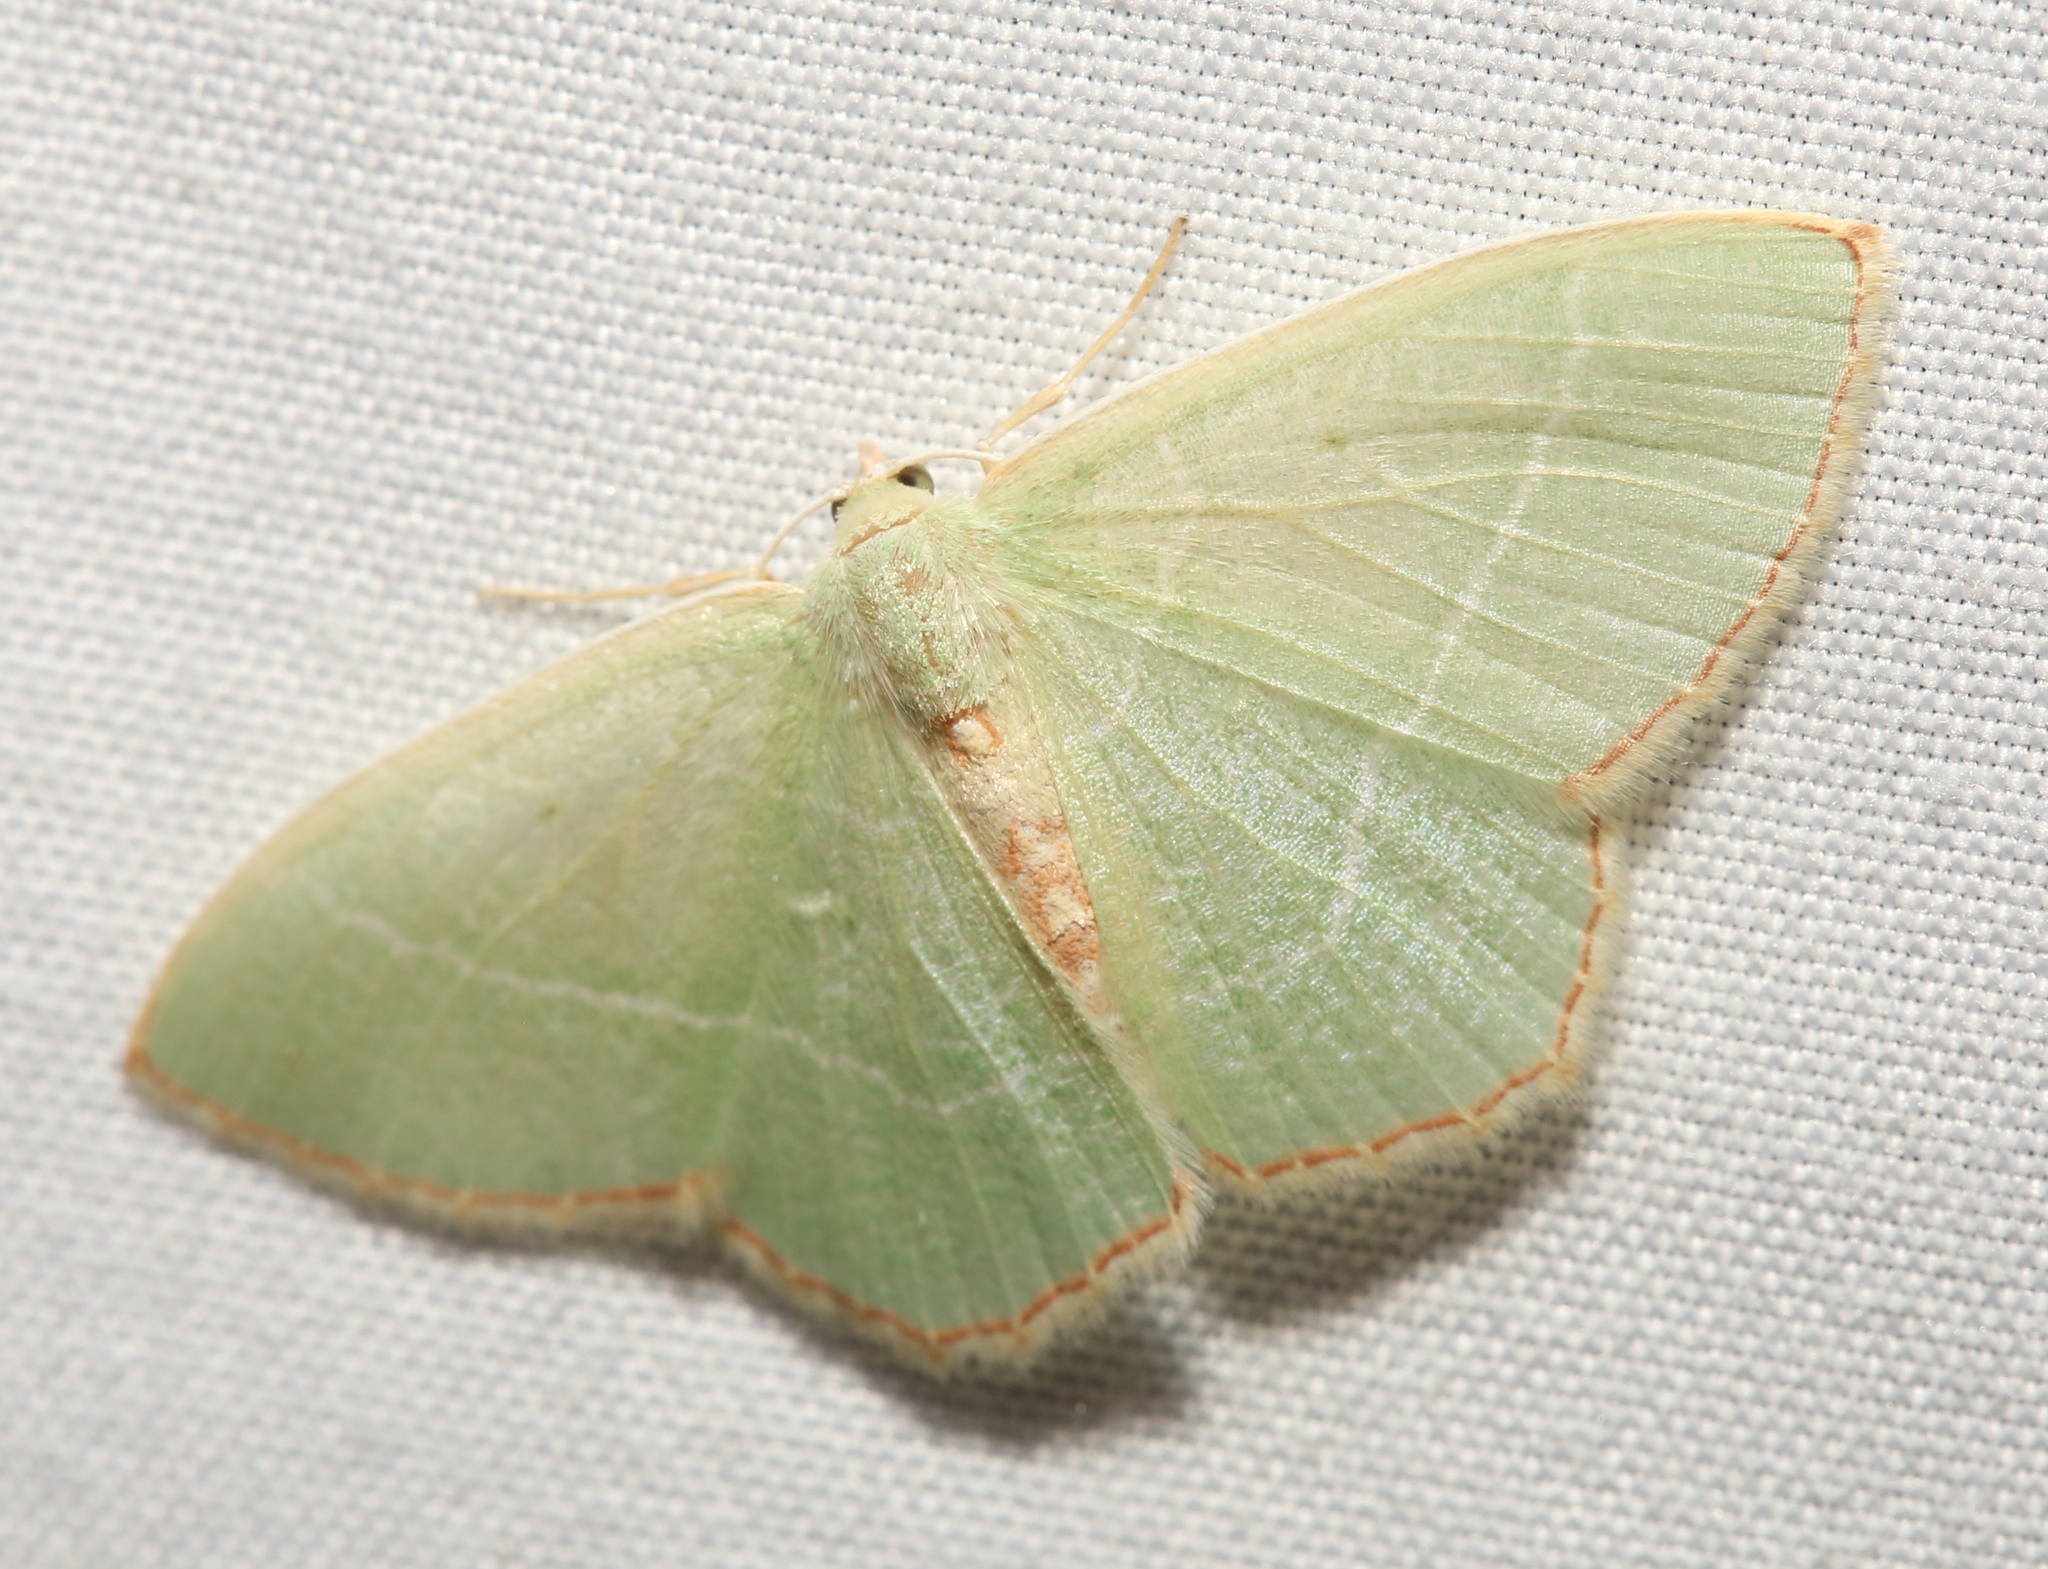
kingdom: Animalia
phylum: Arthropoda
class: Insecta
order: Lepidoptera
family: Geometridae
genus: Nemoria
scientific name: Nemoria bistriaria
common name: Red-fringed emerald
